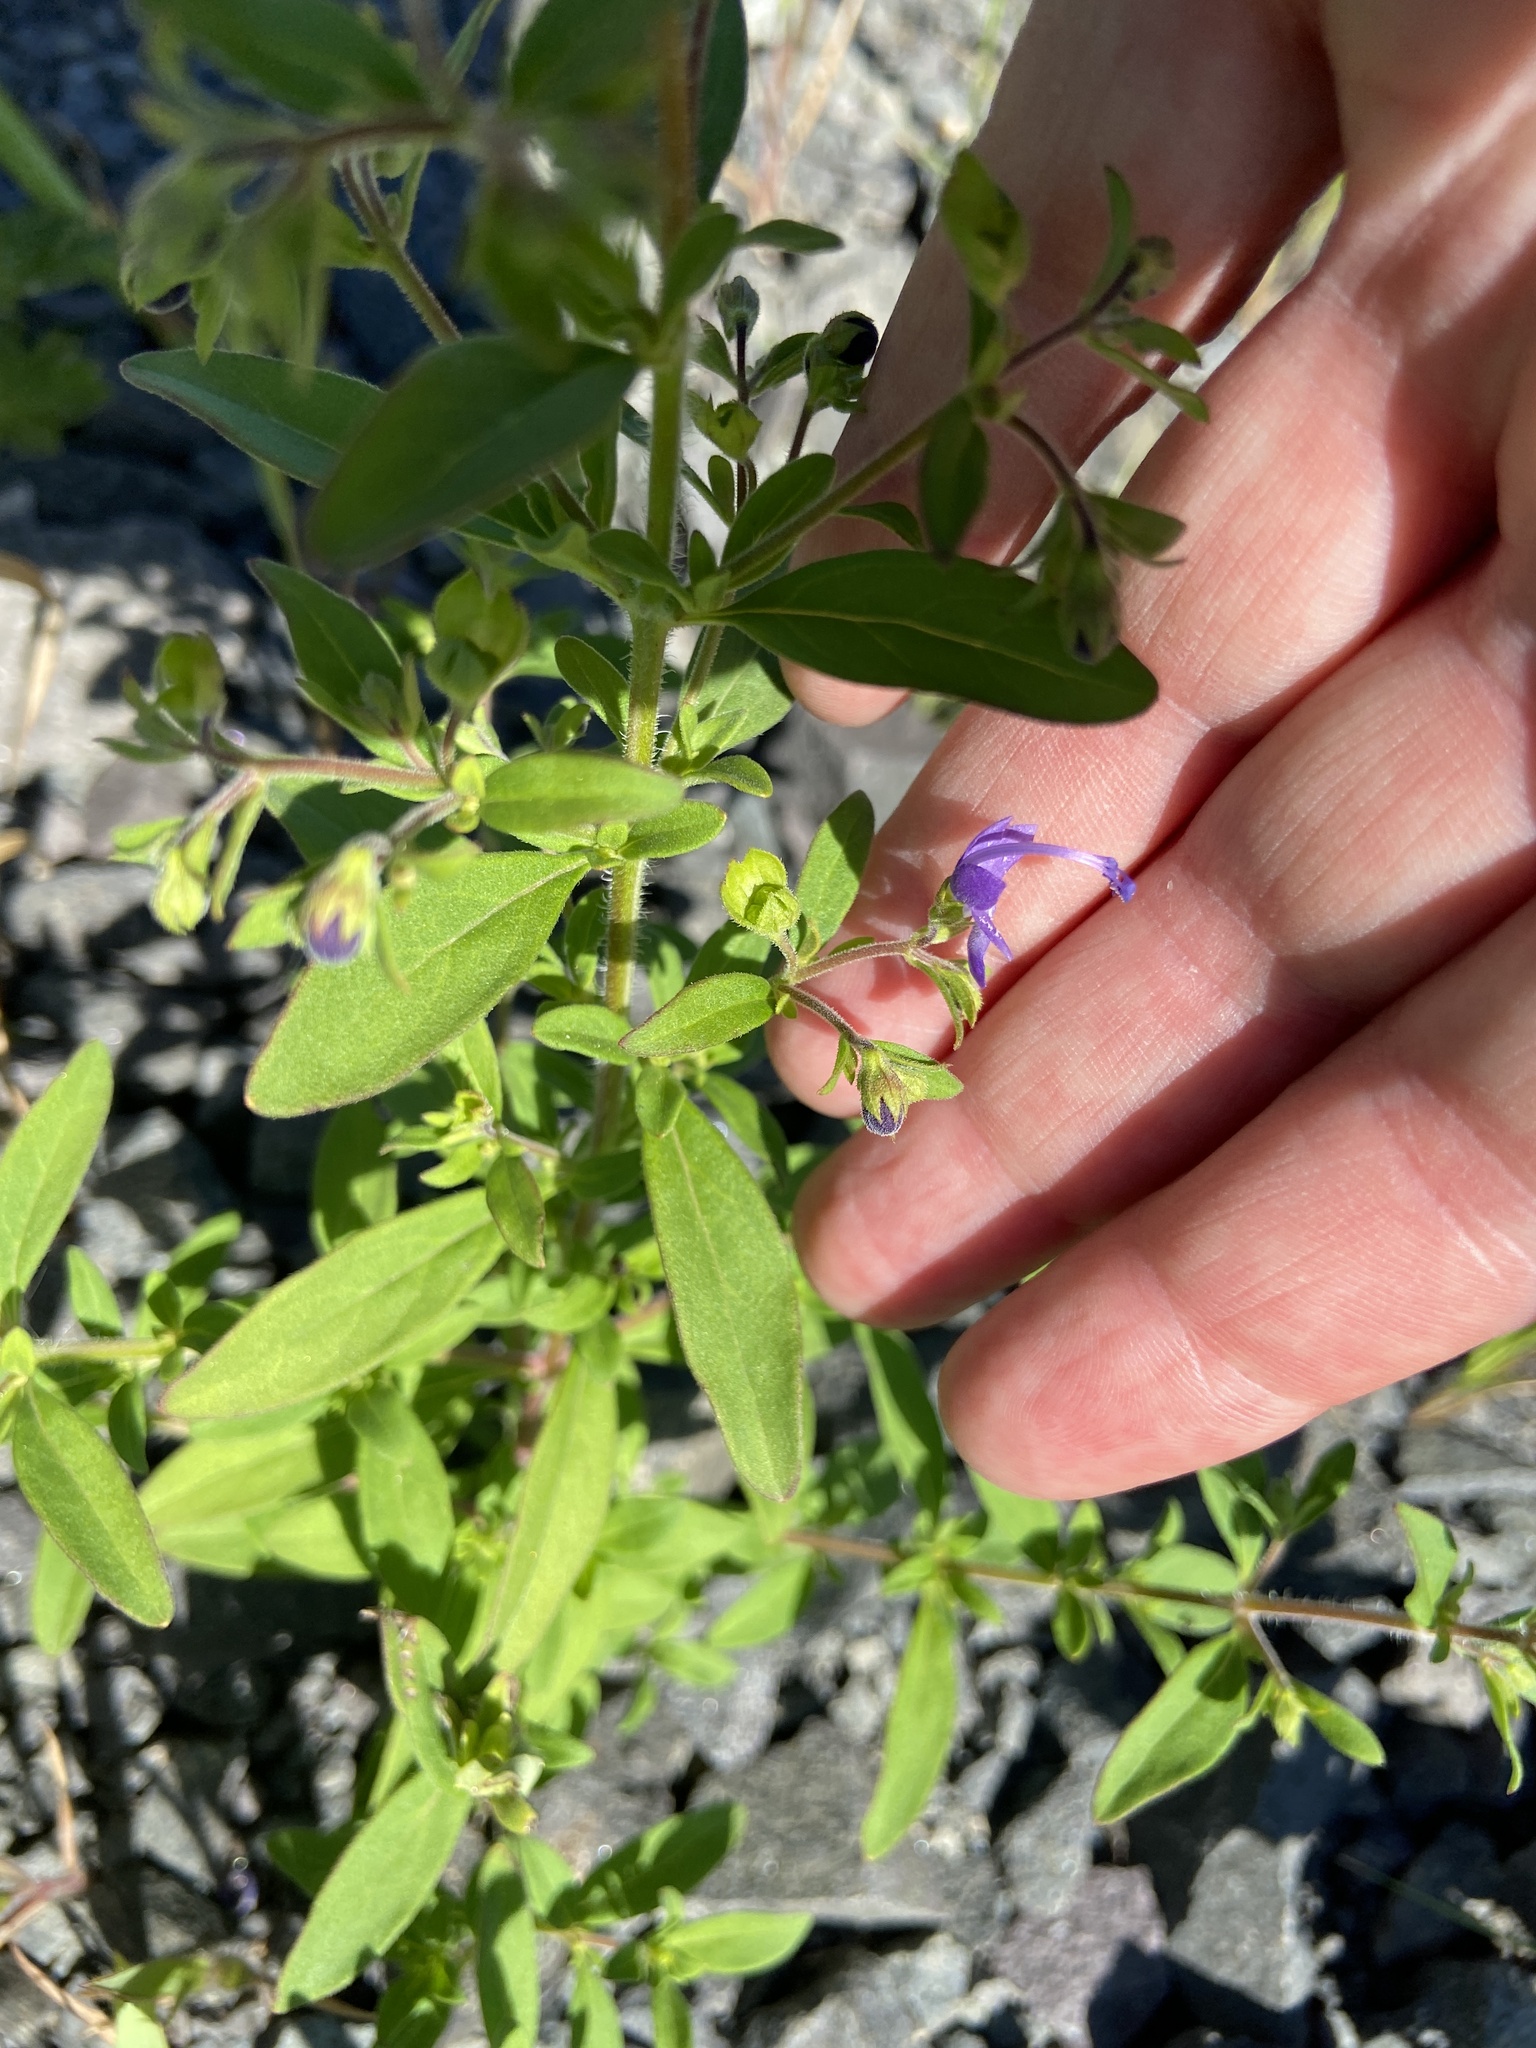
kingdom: Plantae
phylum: Tracheophyta
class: Magnoliopsida
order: Lamiales
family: Lamiaceae
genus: Trichostema
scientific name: Trichostema dichotomum
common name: Bastard pennyroyal
